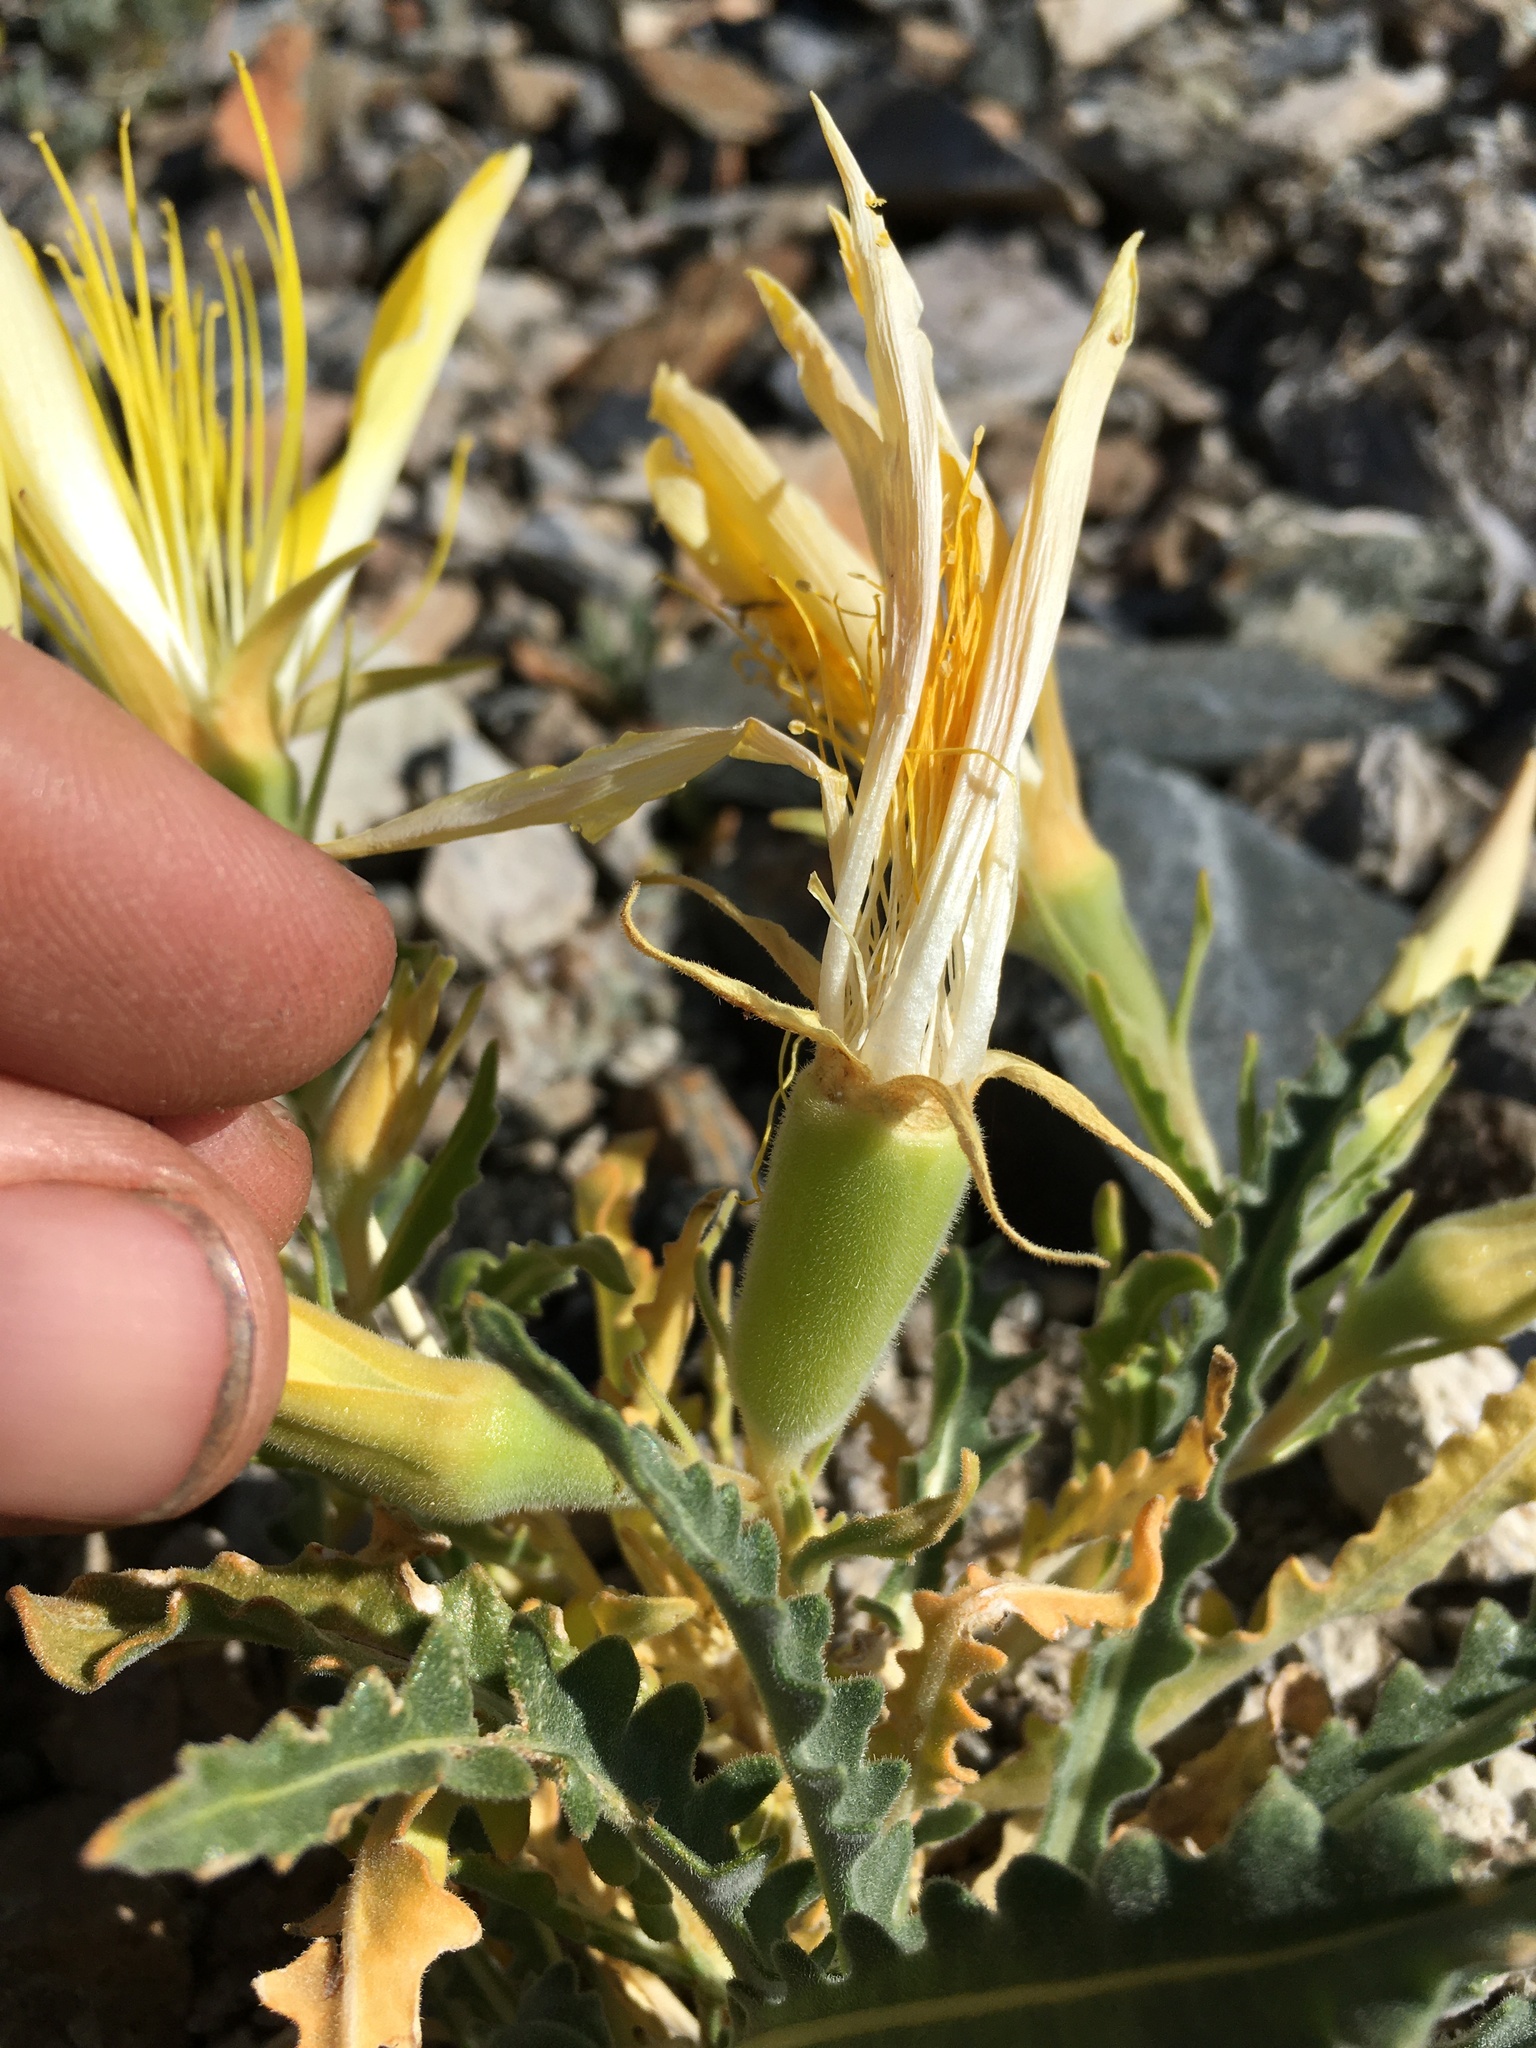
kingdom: Plantae
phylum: Tracheophyta
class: Magnoliopsida
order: Cornales
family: Loasaceae
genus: Mentzelia
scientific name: Mentzelia laevicaulis
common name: Smooth-stem blazingstar
